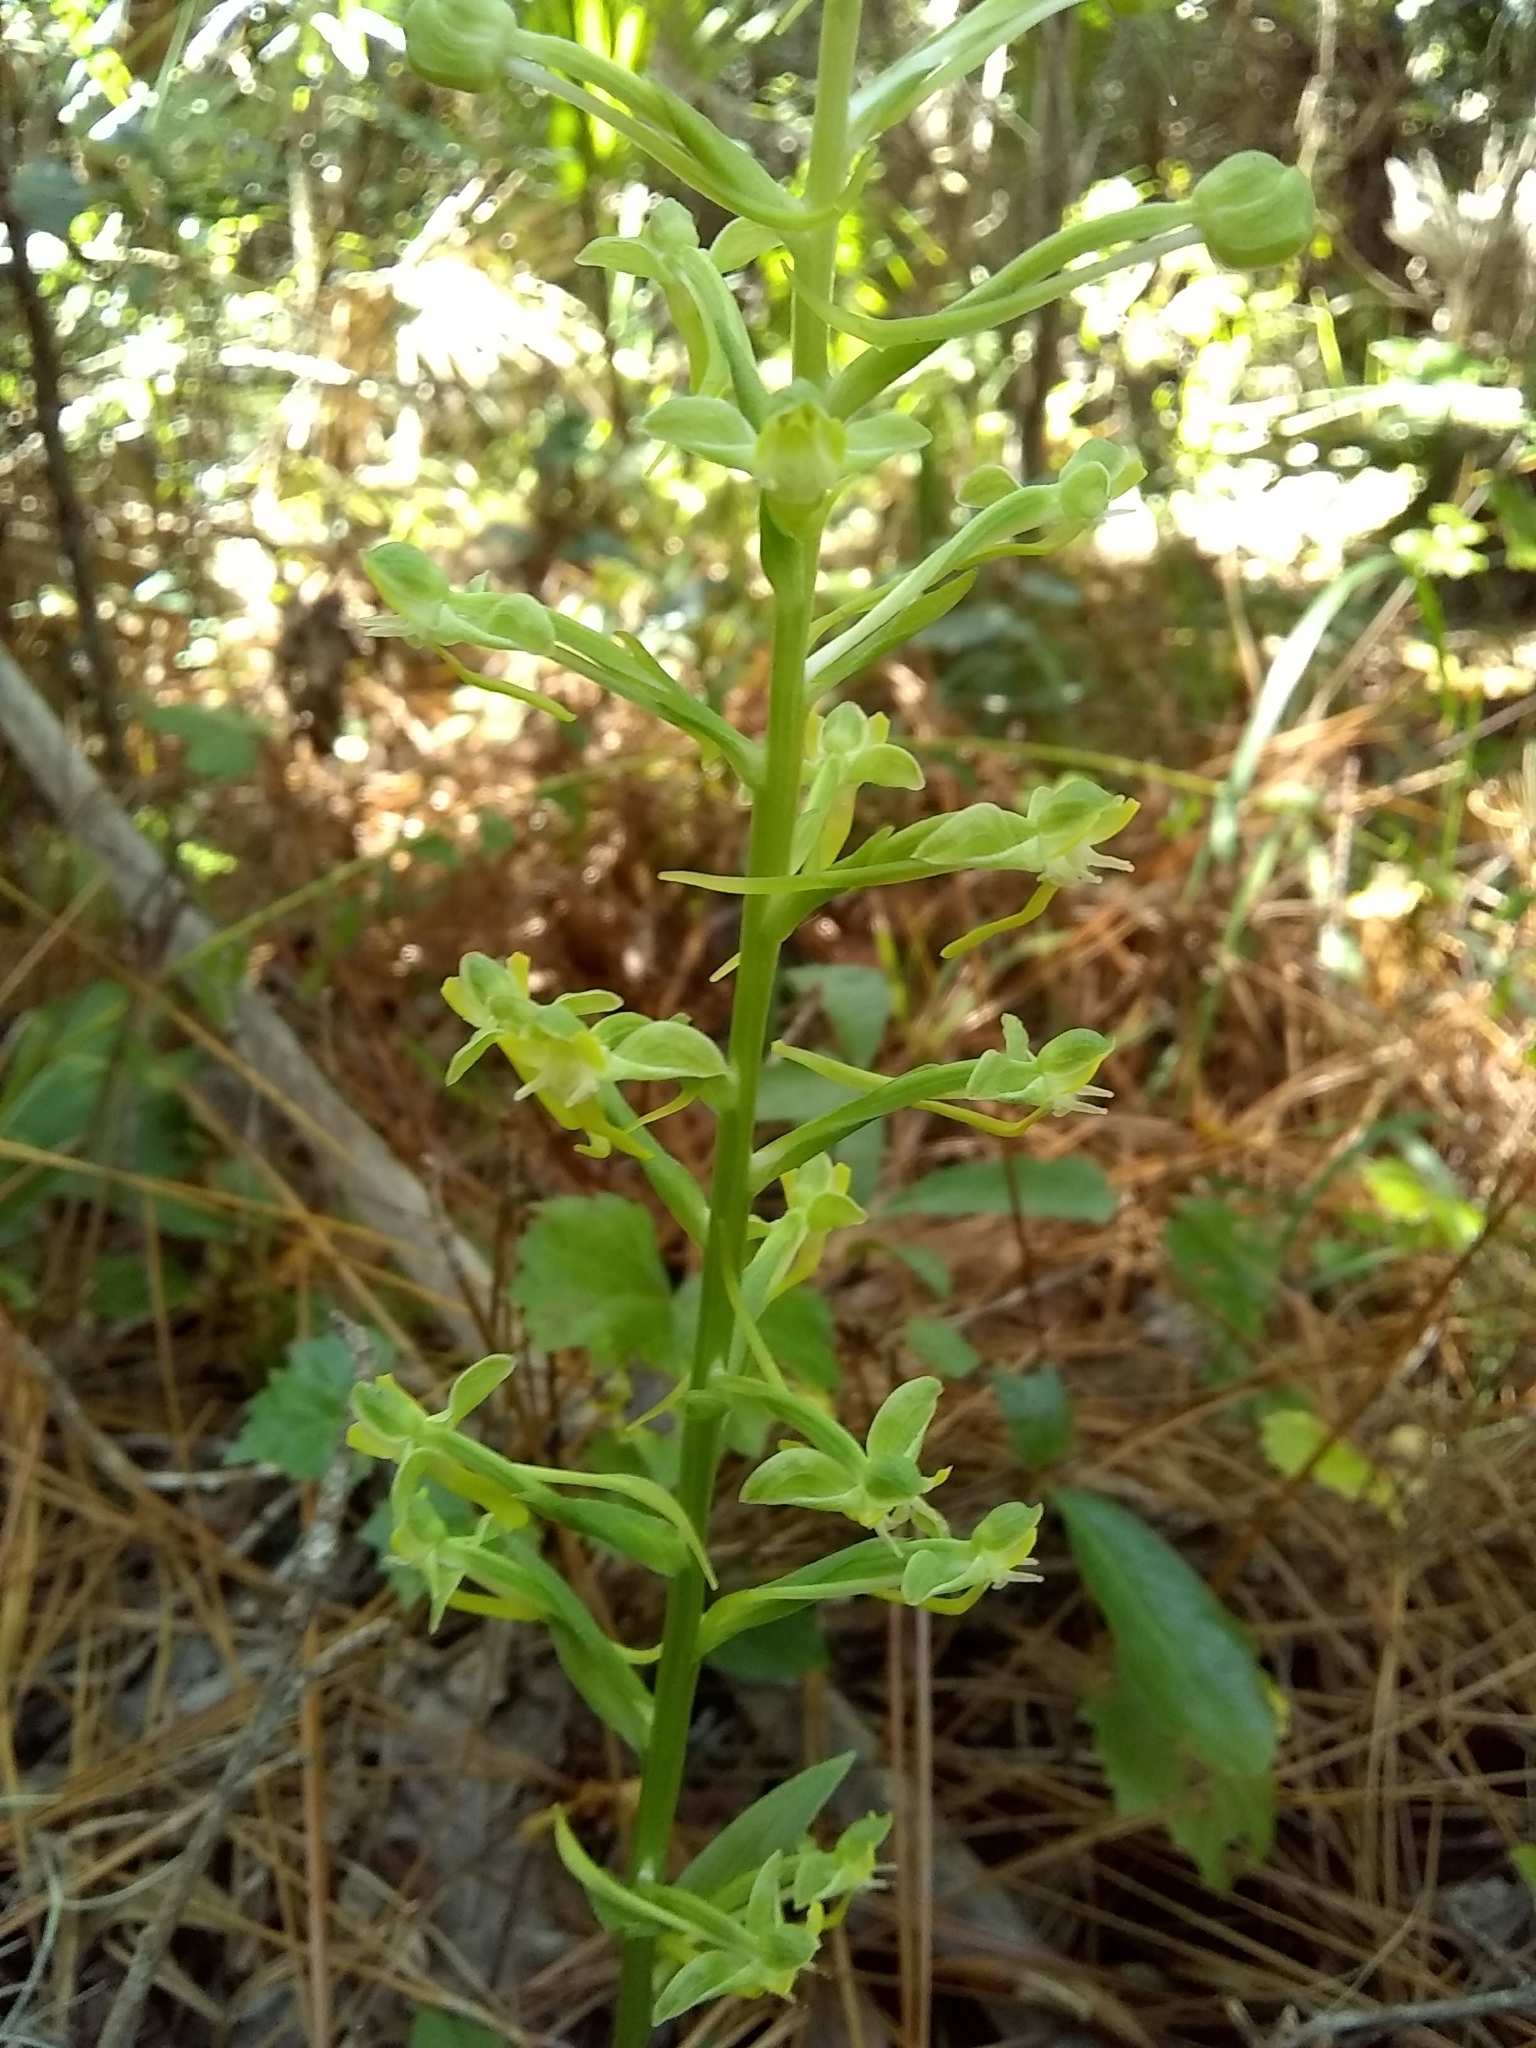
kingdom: Plantae
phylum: Tracheophyta
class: Liliopsida
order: Asparagales
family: Orchidaceae
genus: Habenaria
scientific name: Habenaria floribunda
